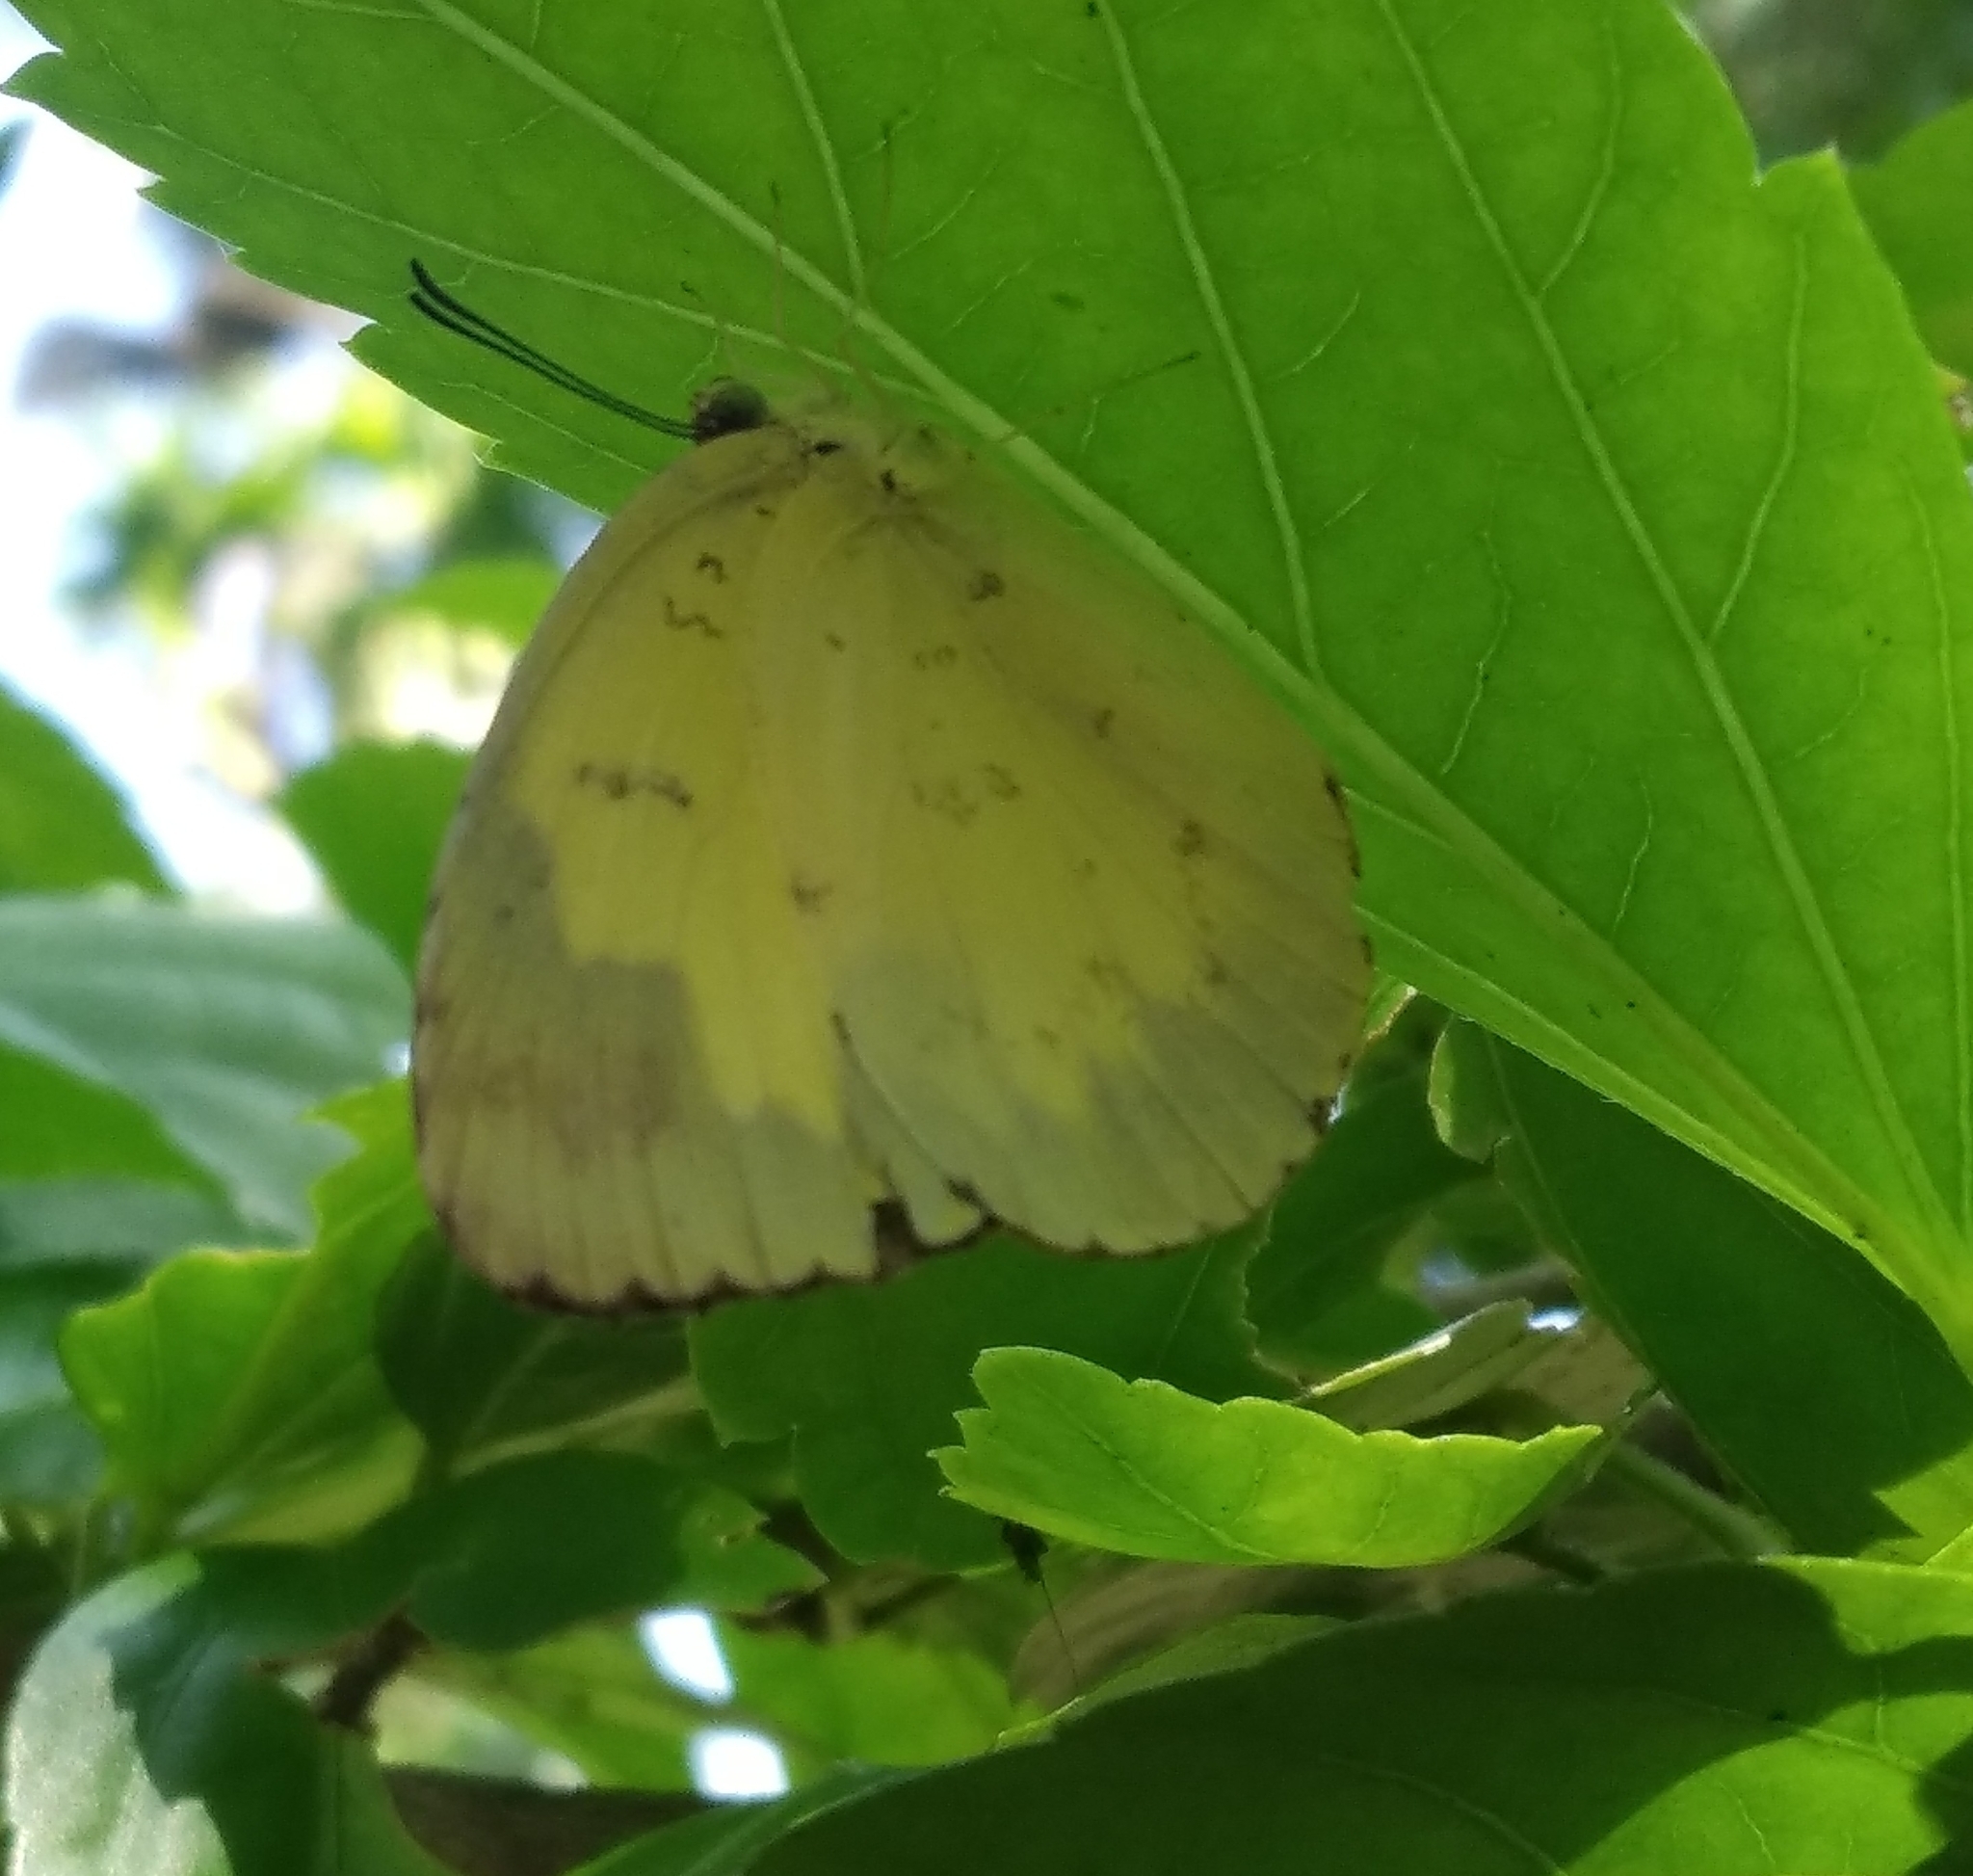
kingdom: Animalia
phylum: Arthropoda
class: Insecta
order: Lepidoptera
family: Pieridae
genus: Eurema
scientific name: Eurema blanda
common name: Three-spot grass yellow
